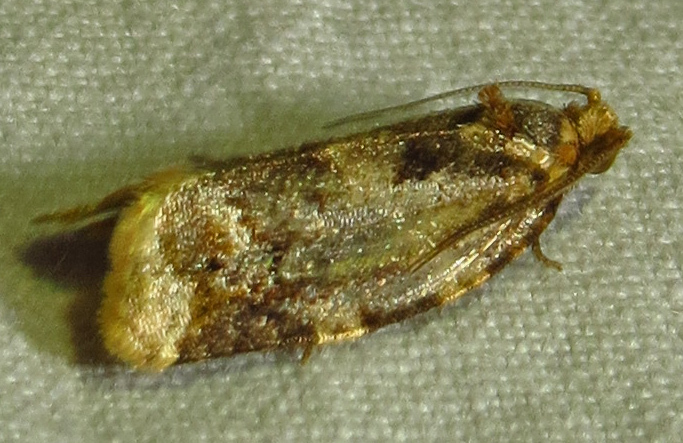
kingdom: Animalia
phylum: Arthropoda
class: Insecta
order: Lepidoptera
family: Tortricidae
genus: Argyrotaenia
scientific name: Argyrotaenia velutinana
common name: Red-banded leafroller moth
